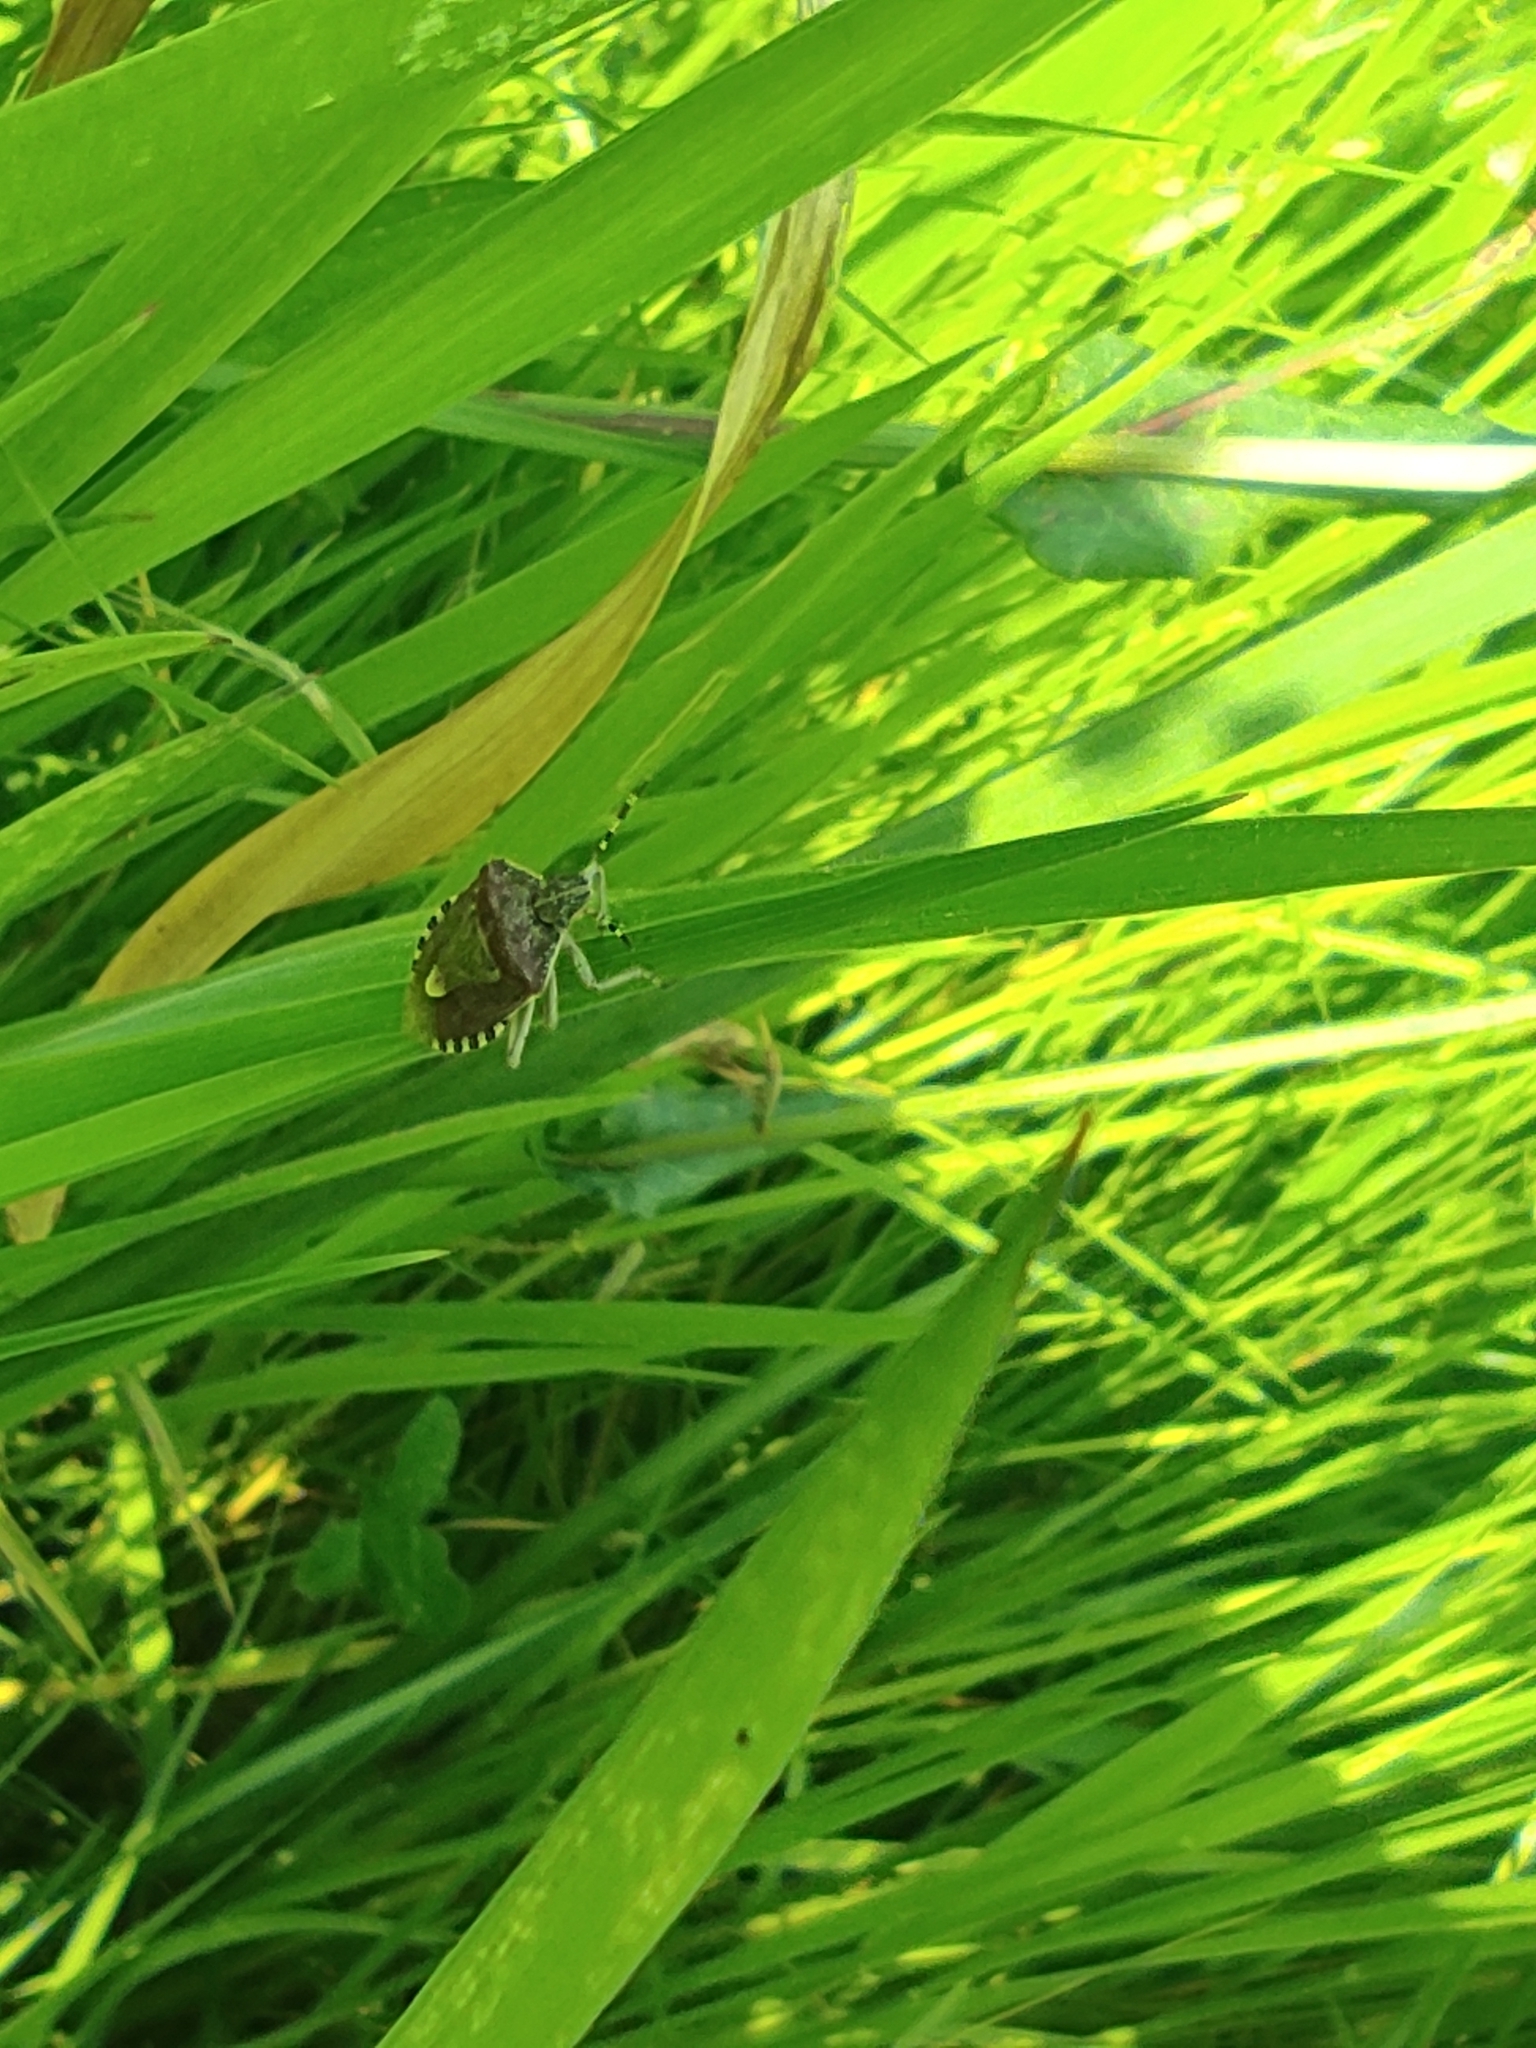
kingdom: Animalia
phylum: Arthropoda
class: Insecta
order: Hemiptera
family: Pentatomidae
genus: Dolycoris
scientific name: Dolycoris baccarum
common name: Sloe bug
